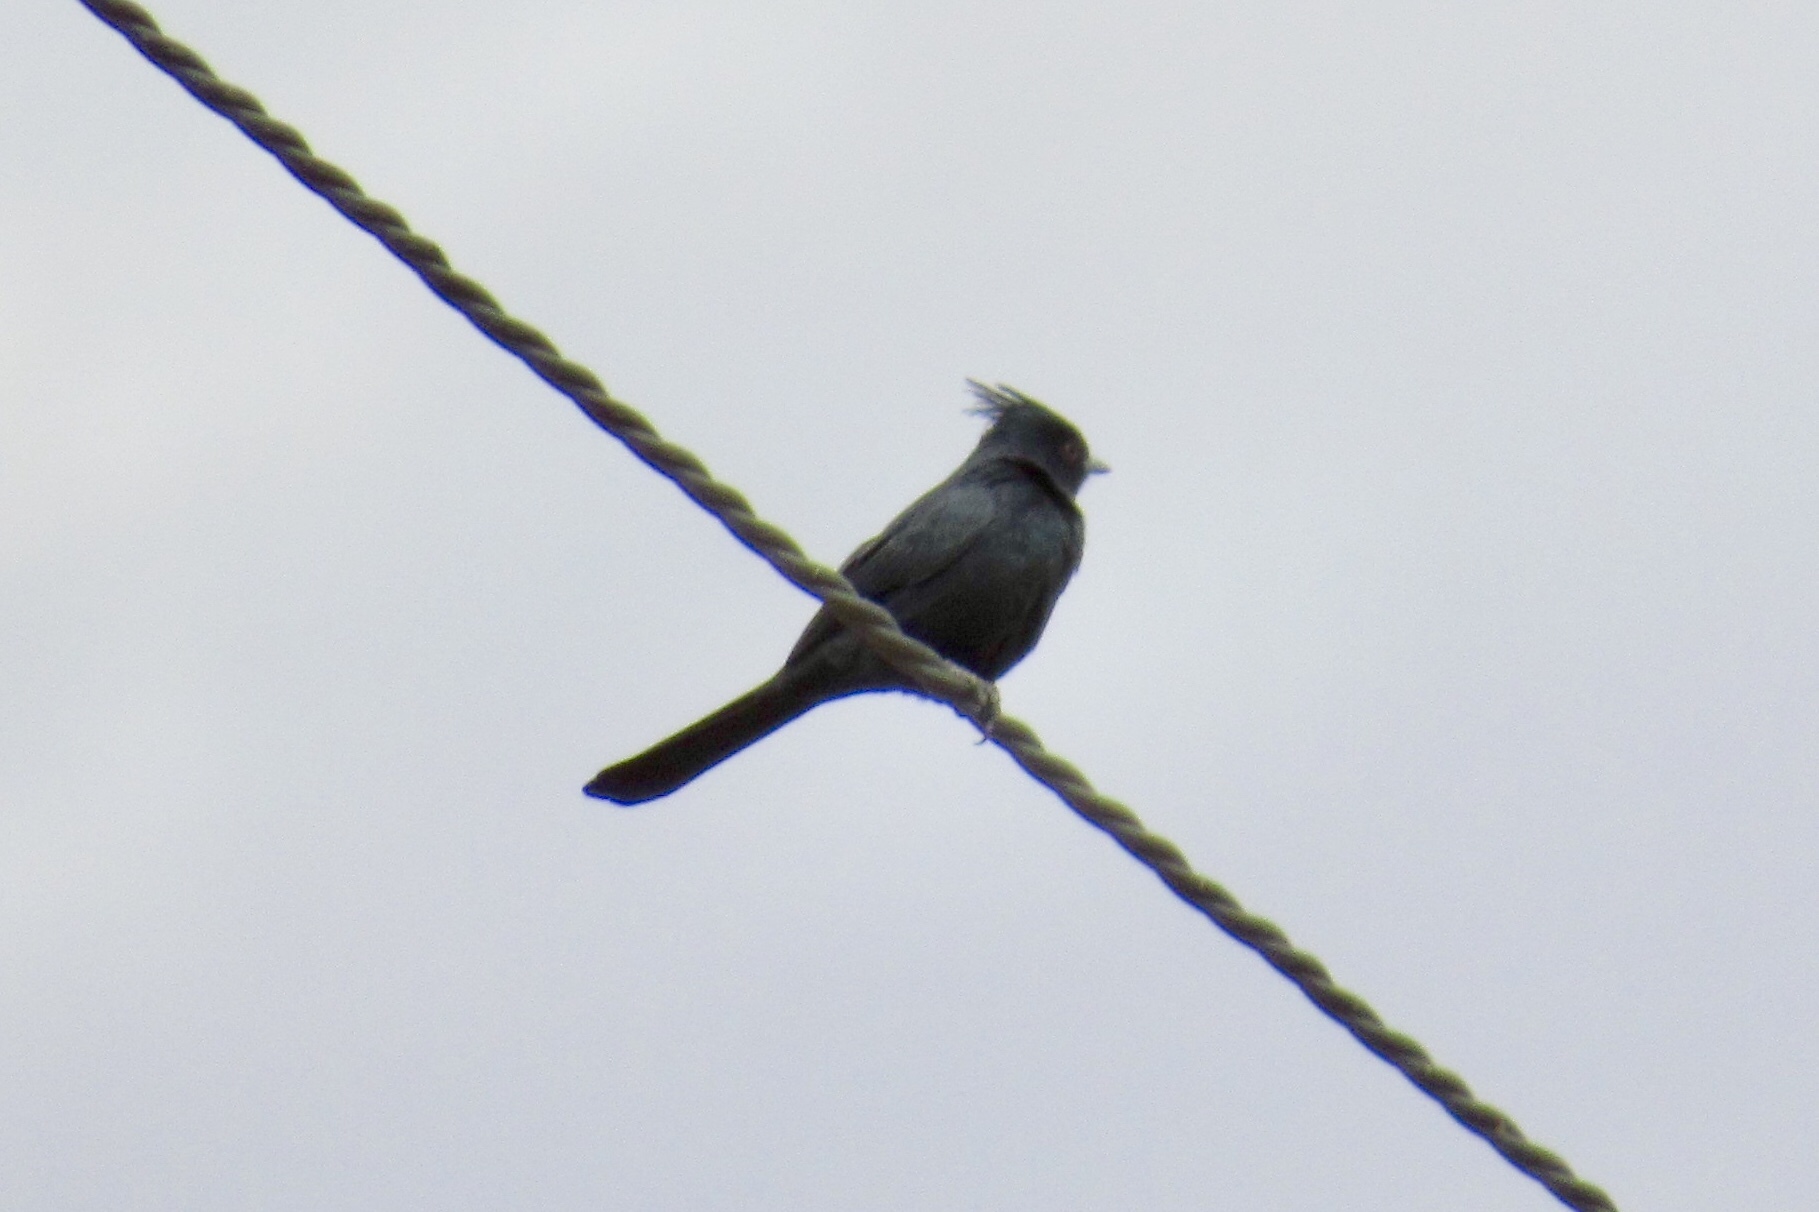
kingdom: Animalia
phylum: Chordata
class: Aves
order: Passeriformes
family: Ptilogonatidae
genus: Phainopepla
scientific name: Phainopepla nitens
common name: Phainopepla
